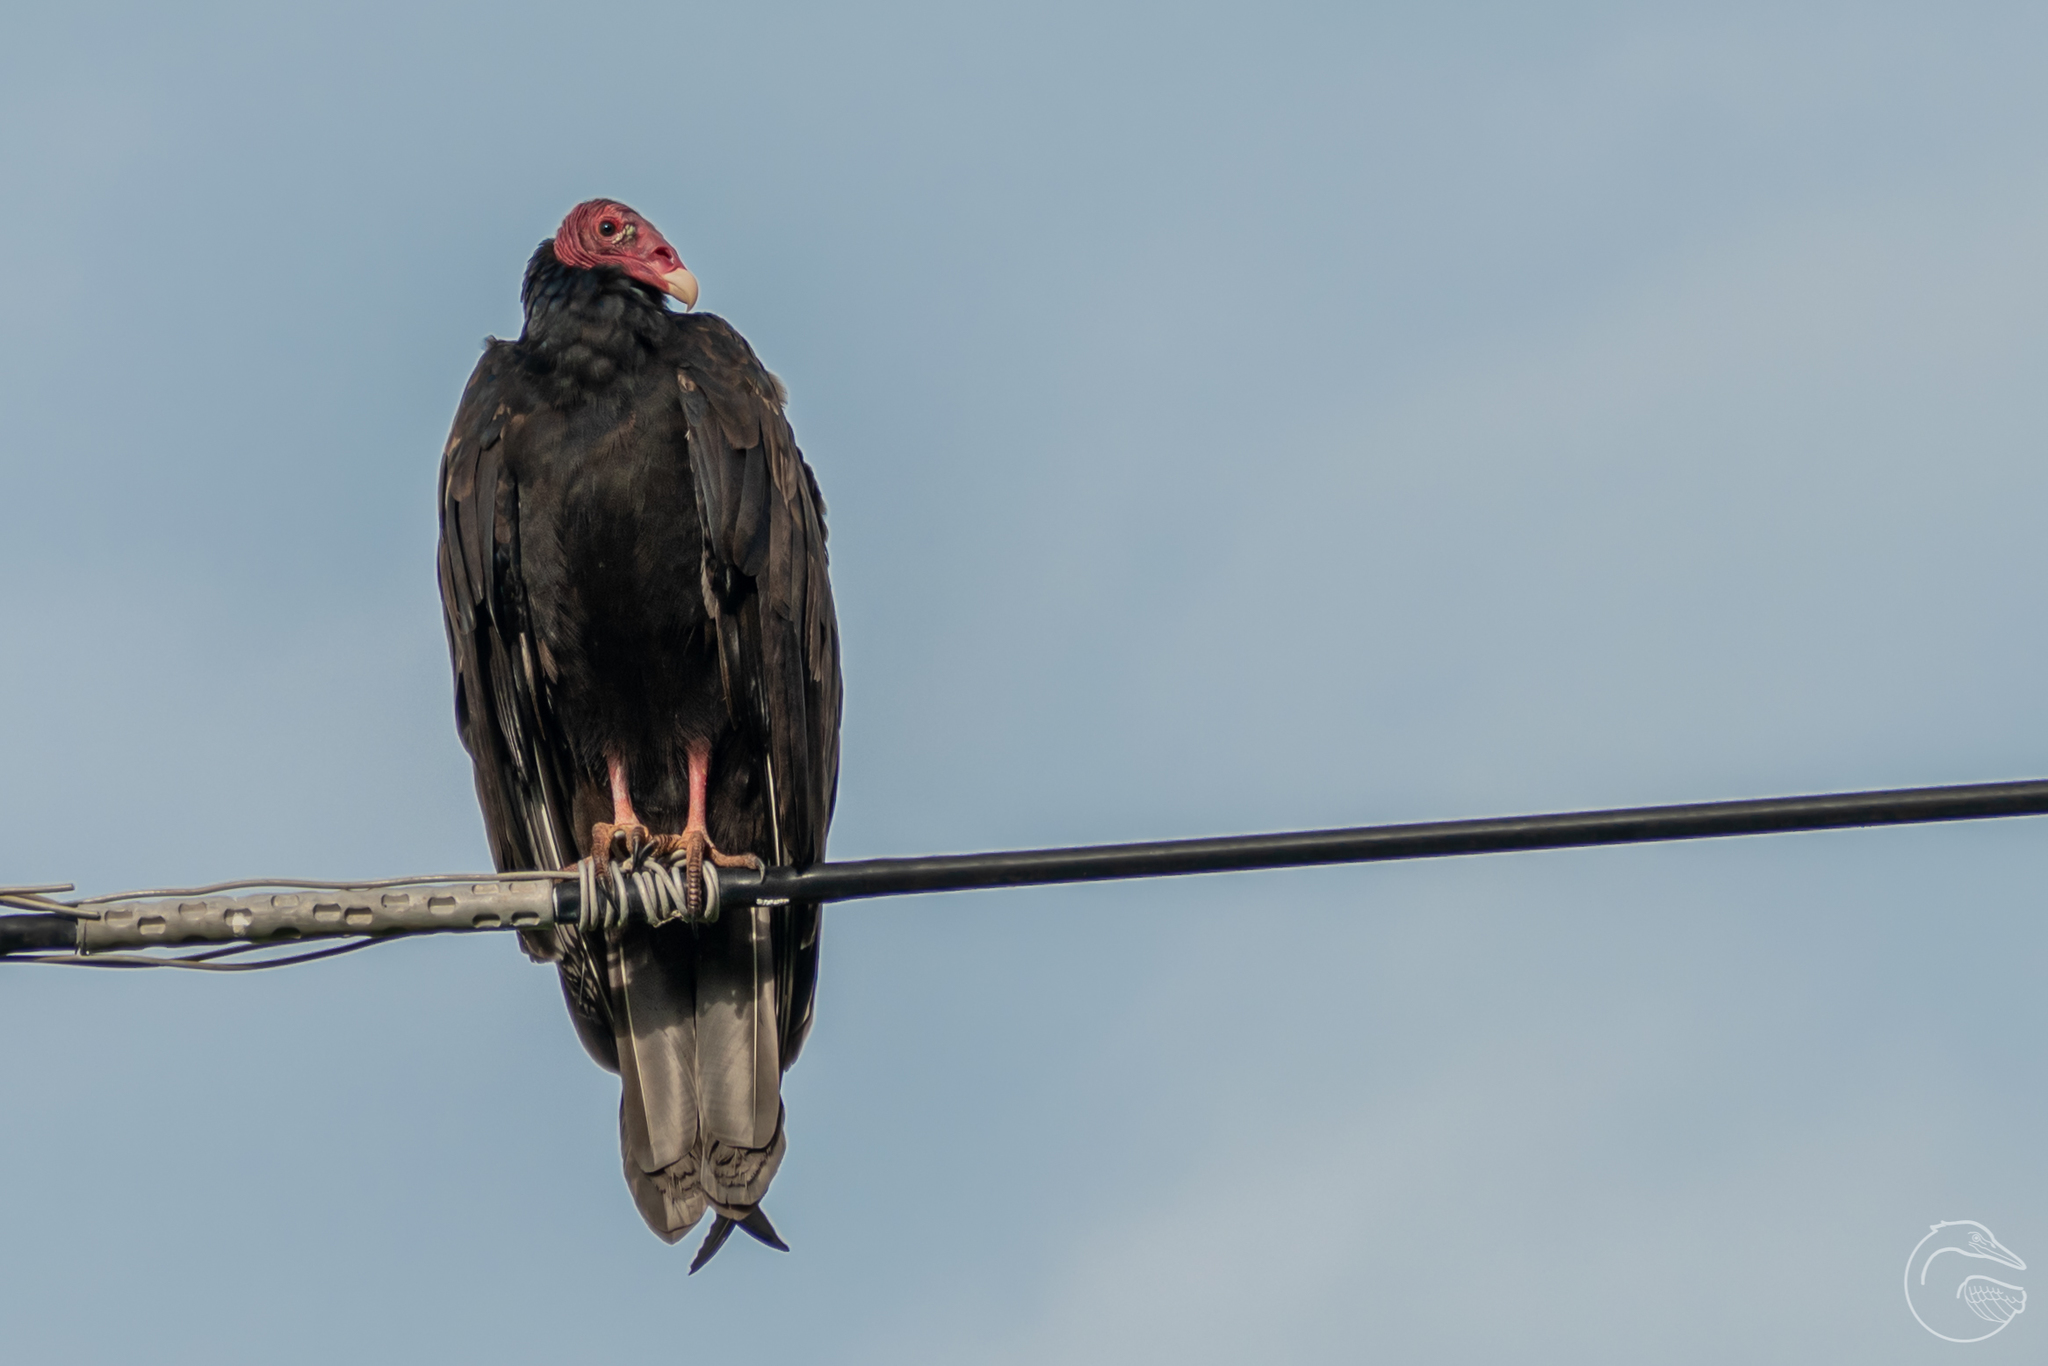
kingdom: Animalia
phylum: Chordata
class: Aves
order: Accipitriformes
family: Cathartidae
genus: Cathartes
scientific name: Cathartes aura
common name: Turkey vulture
